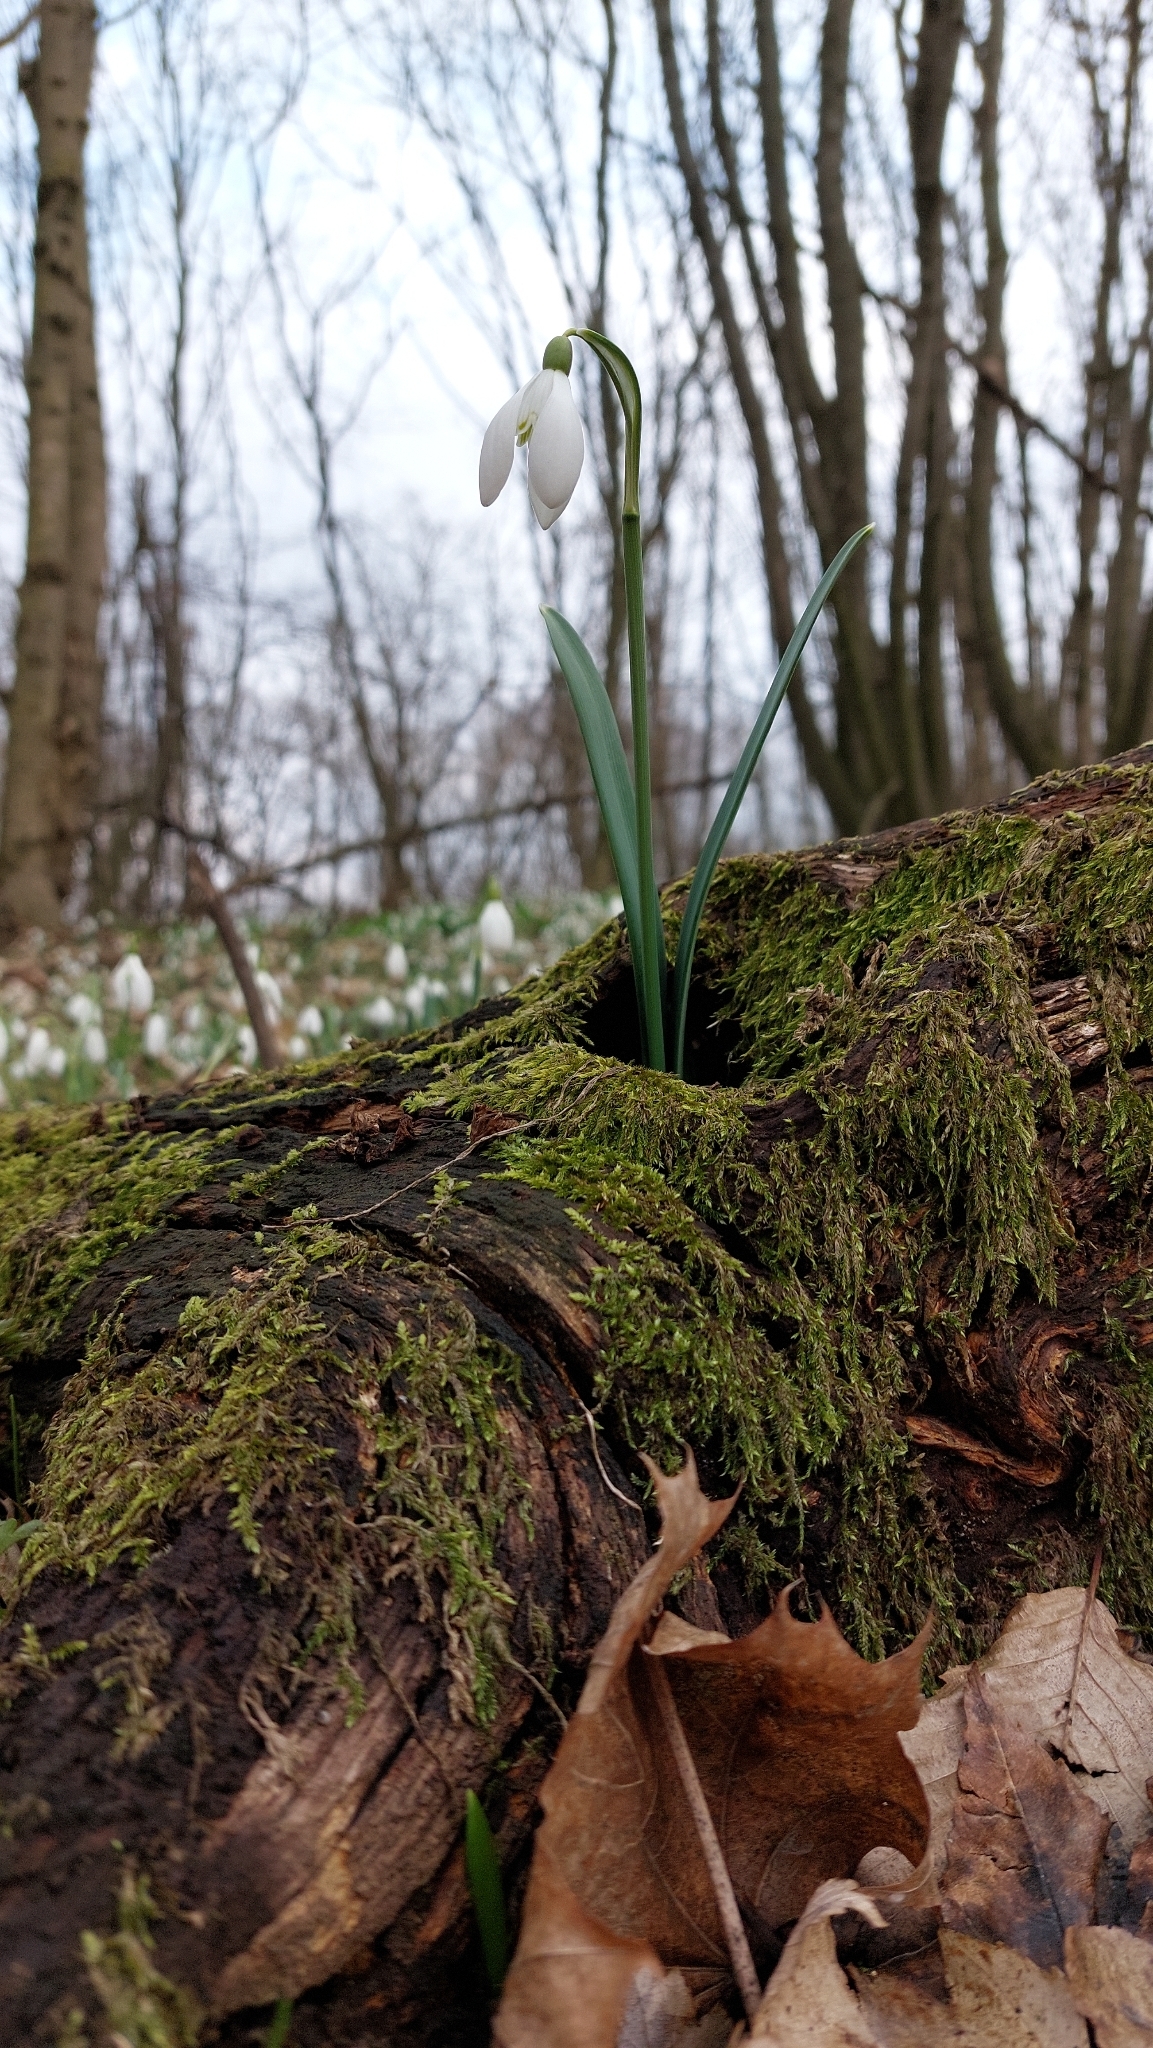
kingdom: Plantae
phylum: Tracheophyta
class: Liliopsida
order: Asparagales
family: Amaryllidaceae
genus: Galanthus
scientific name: Galanthus nivalis
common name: Snowdrop
